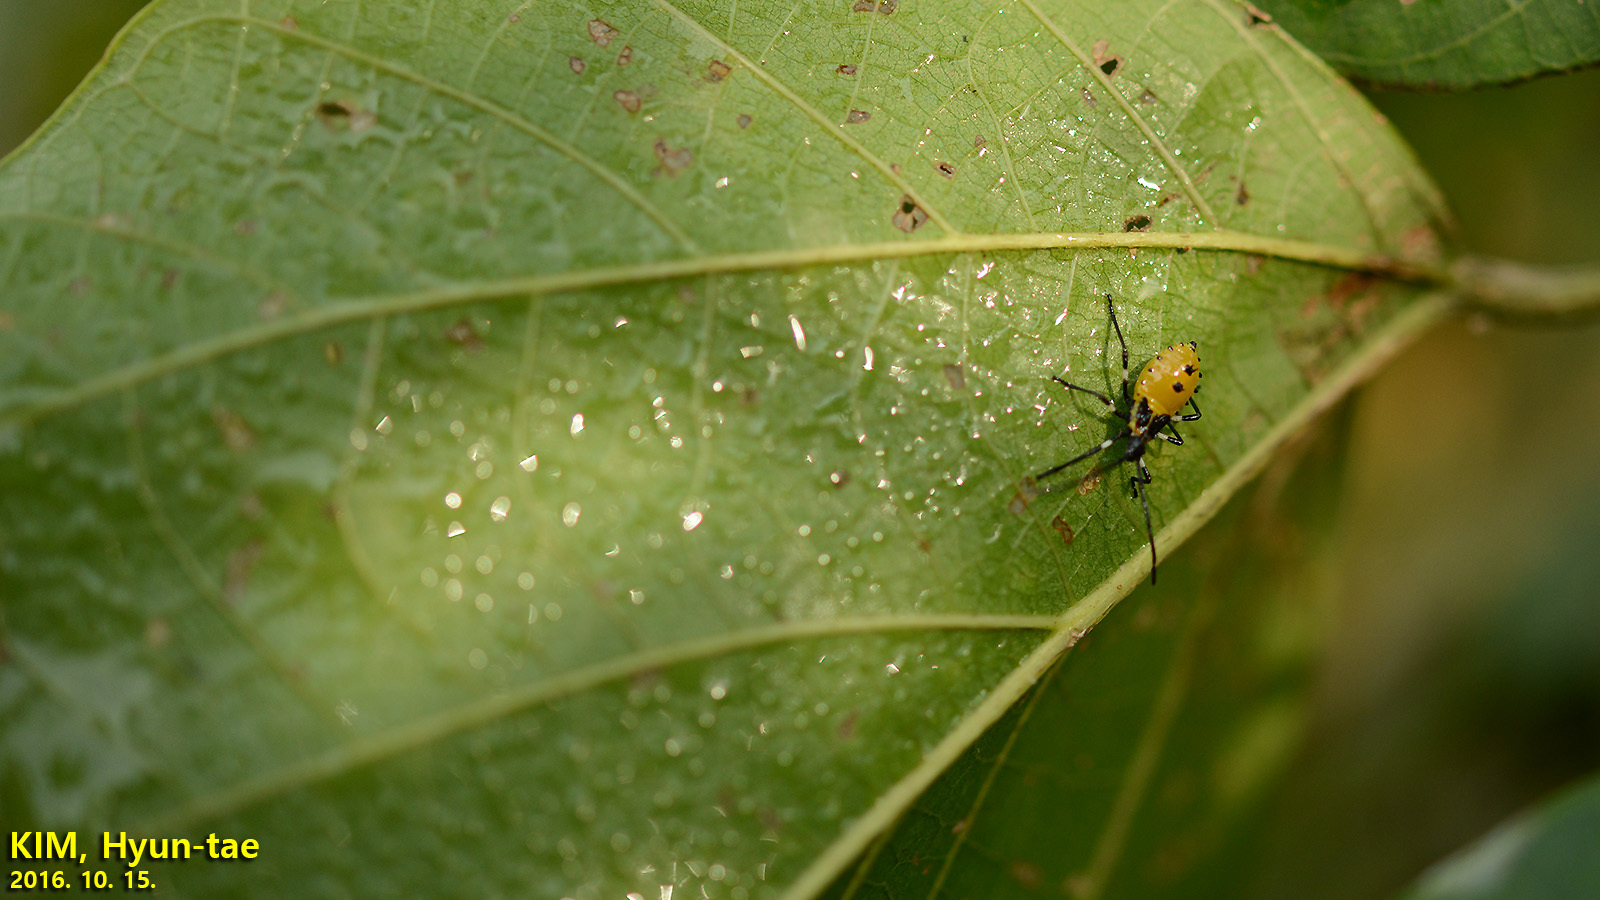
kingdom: Animalia
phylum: Arthropoda
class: Insecta
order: Hemiptera
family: Coreidae
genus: Plinachtus
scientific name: Plinachtus bicoloripes
